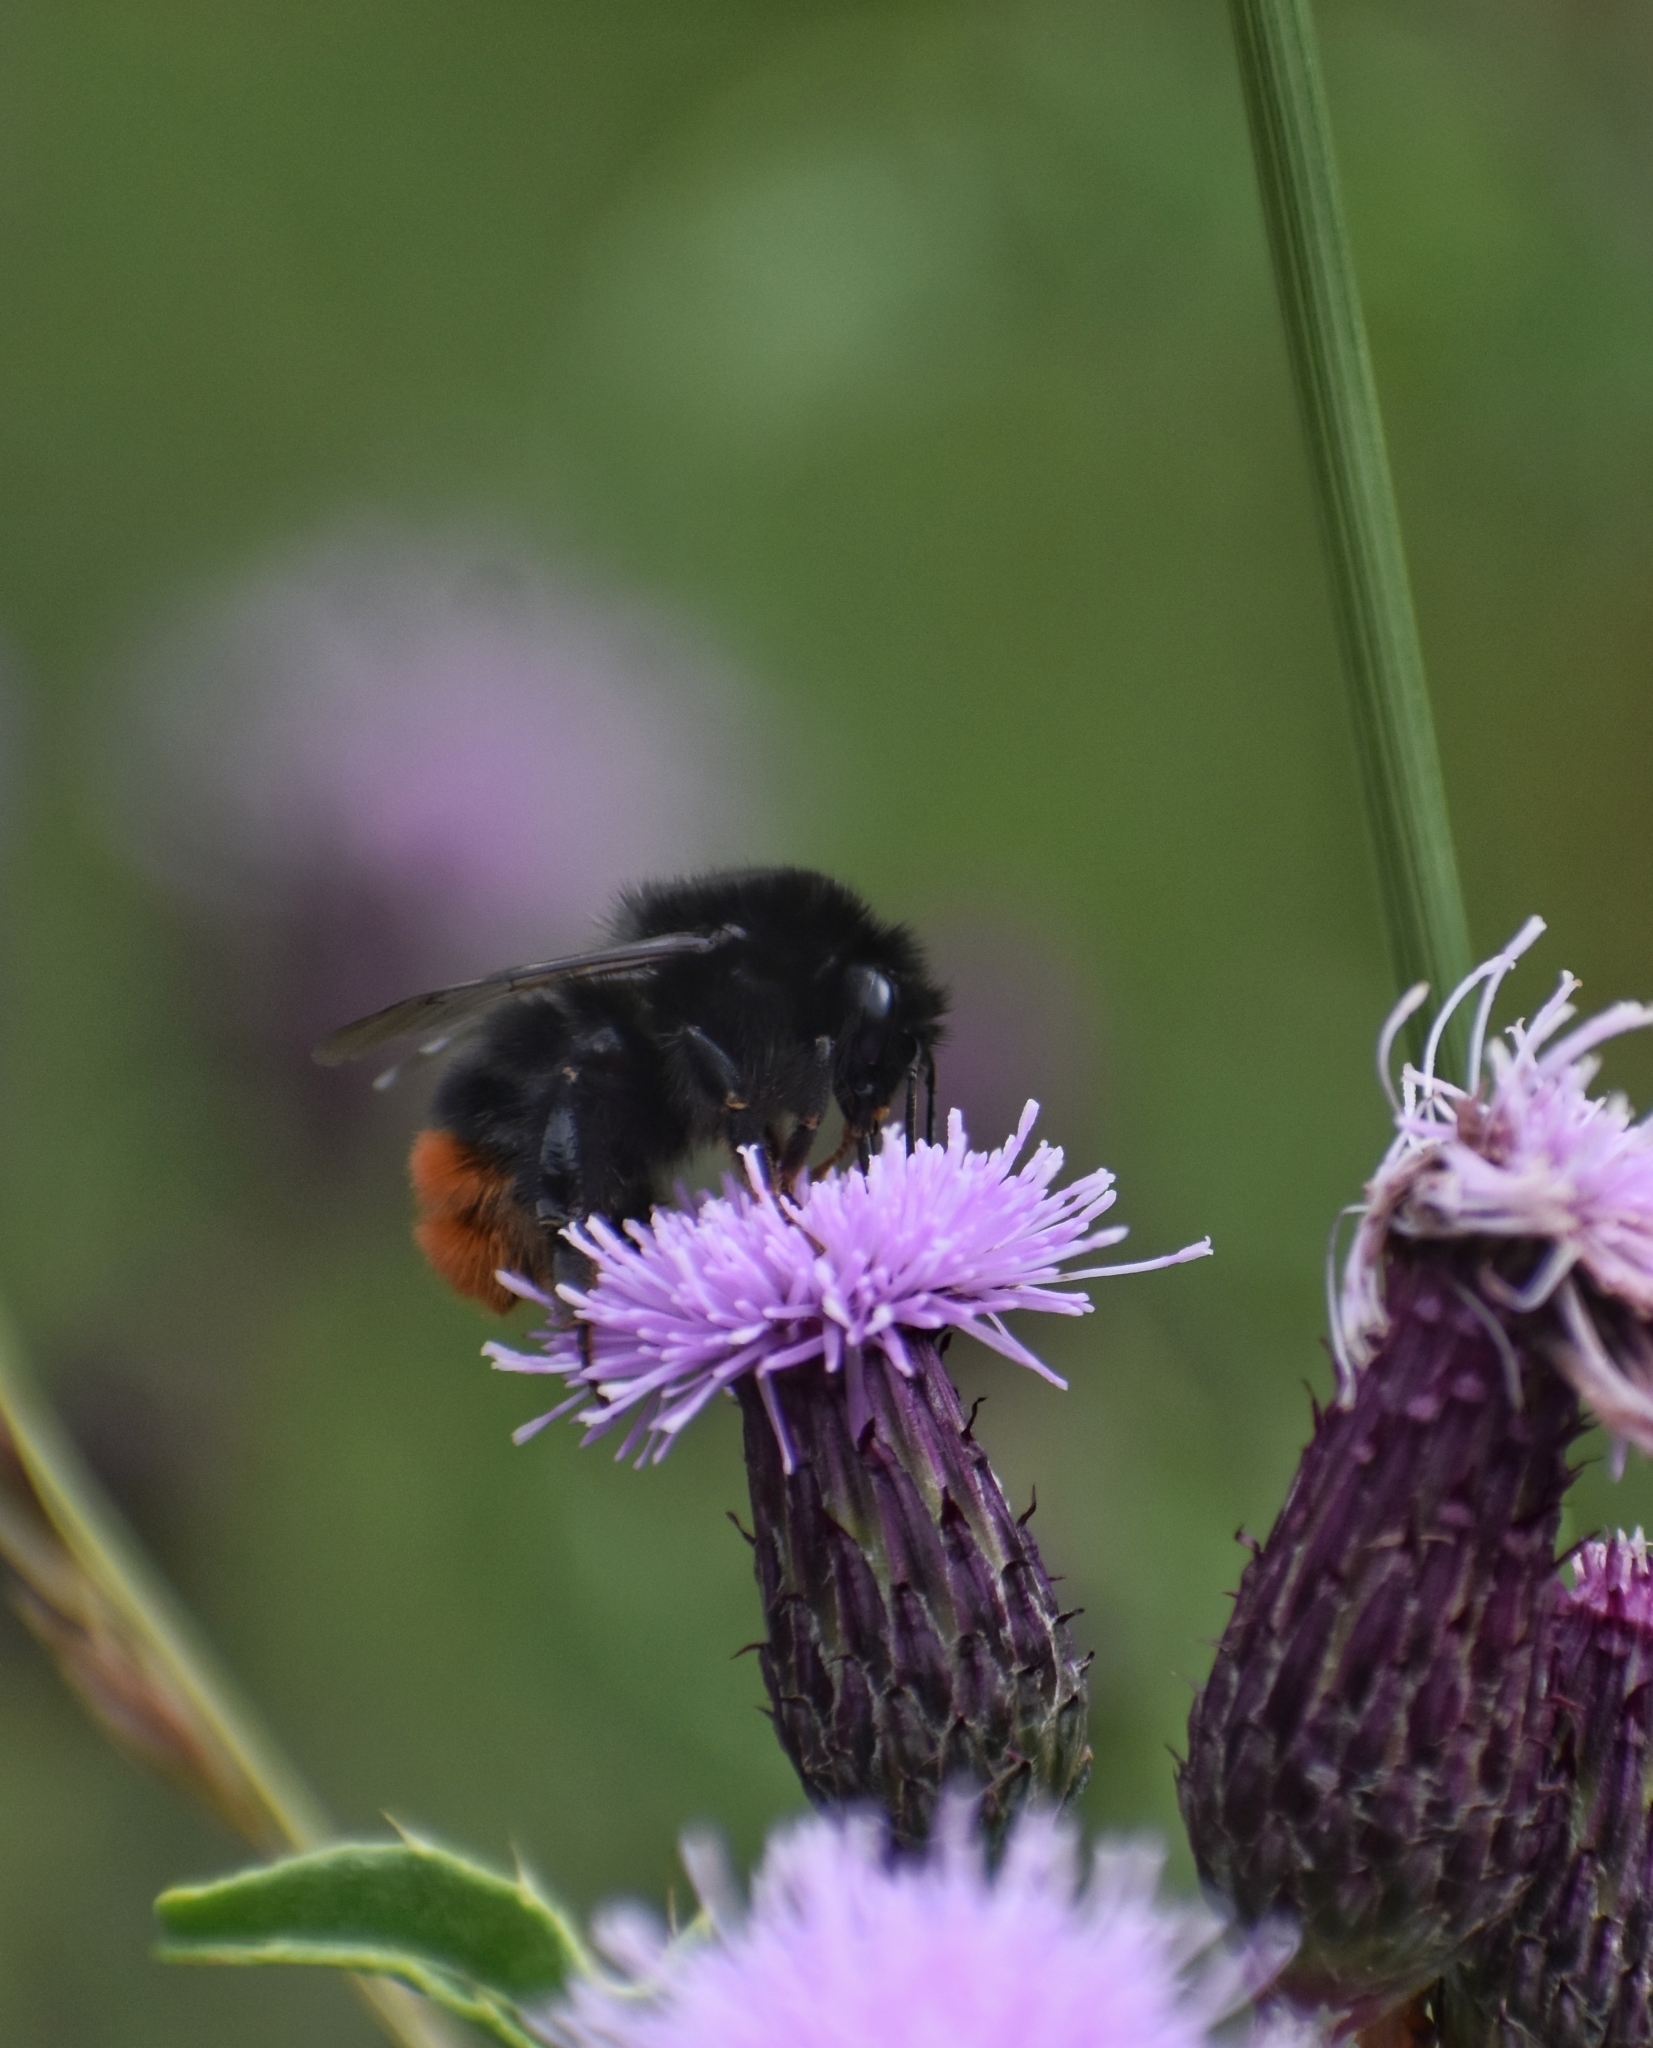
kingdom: Animalia
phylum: Arthropoda
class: Insecta
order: Hymenoptera
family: Apidae
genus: Bombus
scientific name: Bombus lapidarius
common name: Large red-tailed humble-bee
